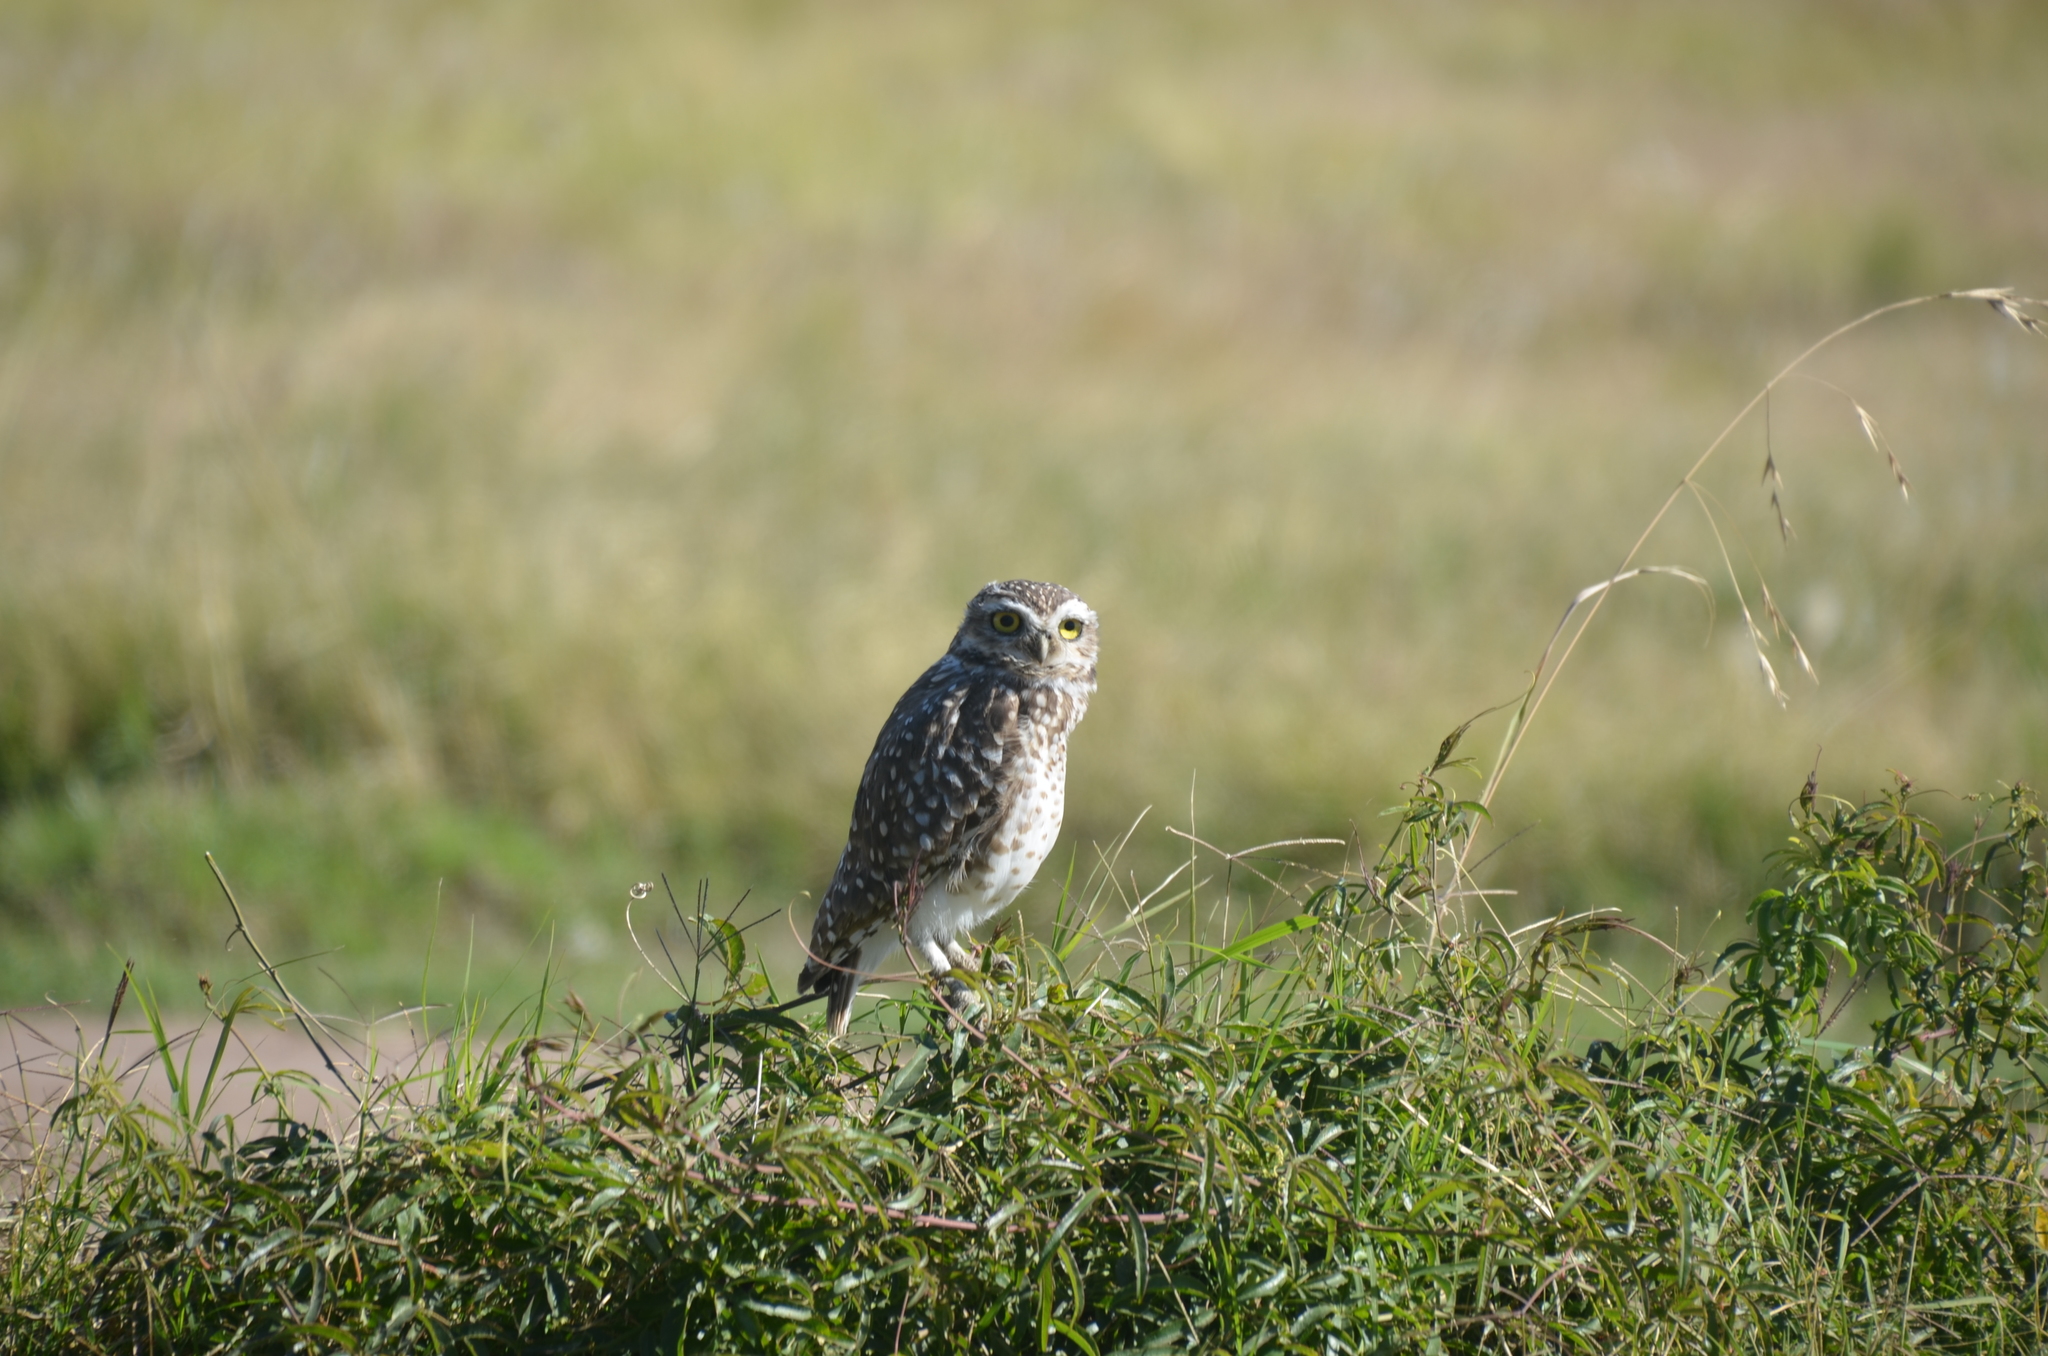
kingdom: Animalia
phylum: Chordata
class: Aves
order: Strigiformes
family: Strigidae
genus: Athene
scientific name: Athene cunicularia
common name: Burrowing owl
